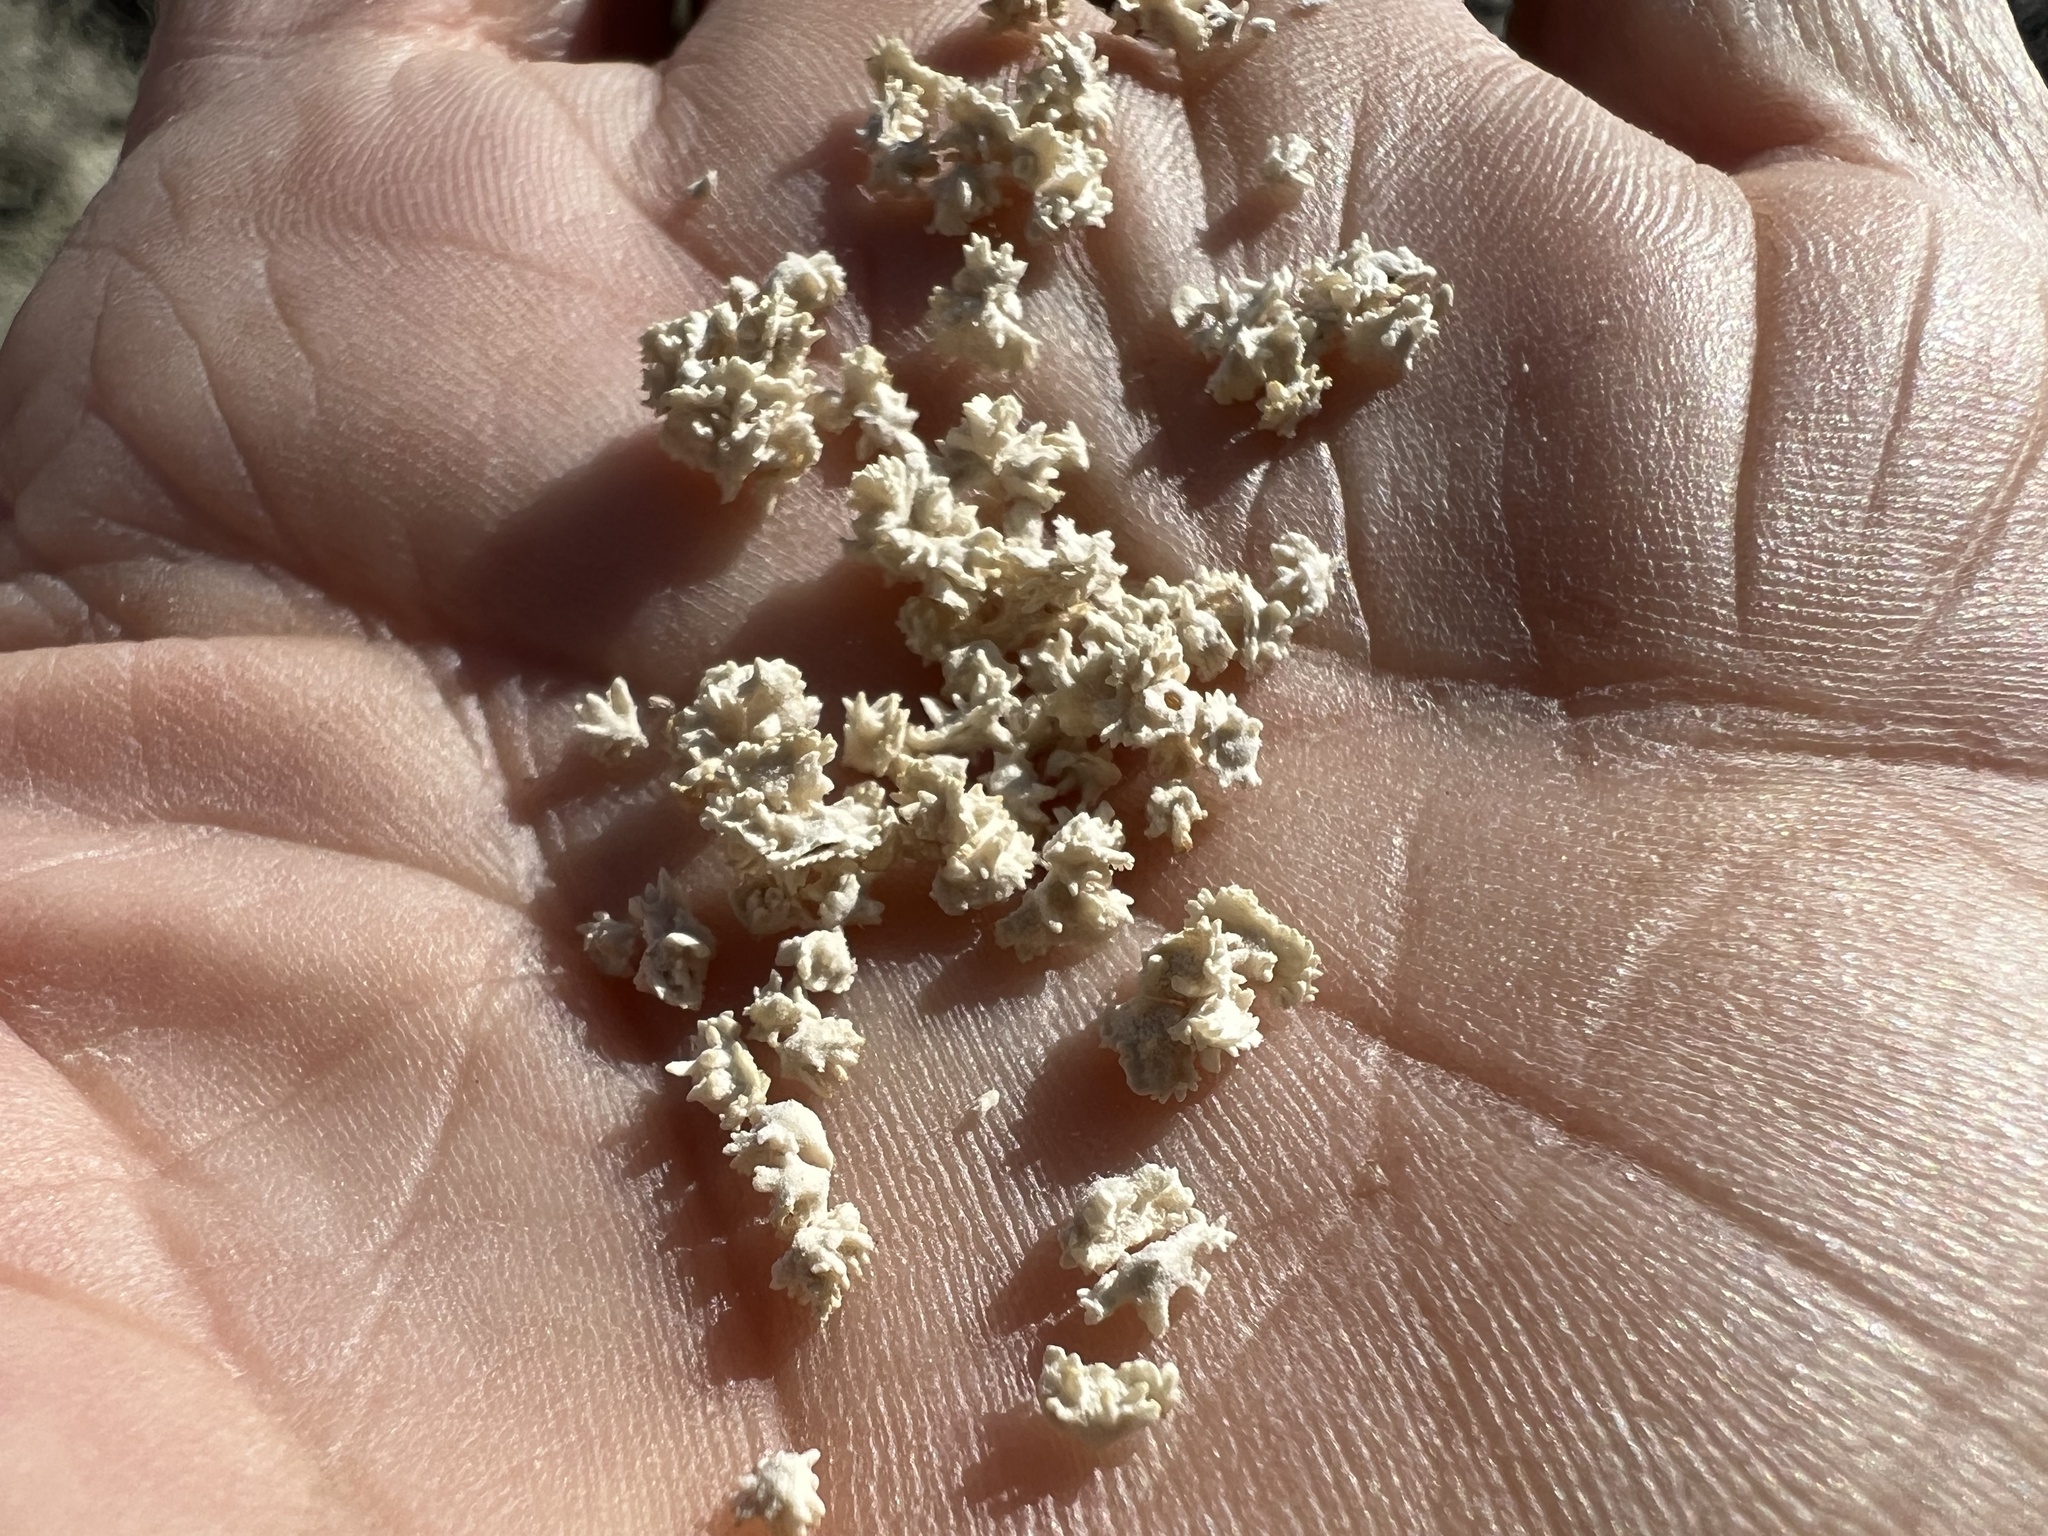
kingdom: Plantae
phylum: Tracheophyta
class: Magnoliopsida
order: Caryophyllales
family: Amaranthaceae
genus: Atriplex
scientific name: Atriplex polycarpa
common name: Desert saltbush
